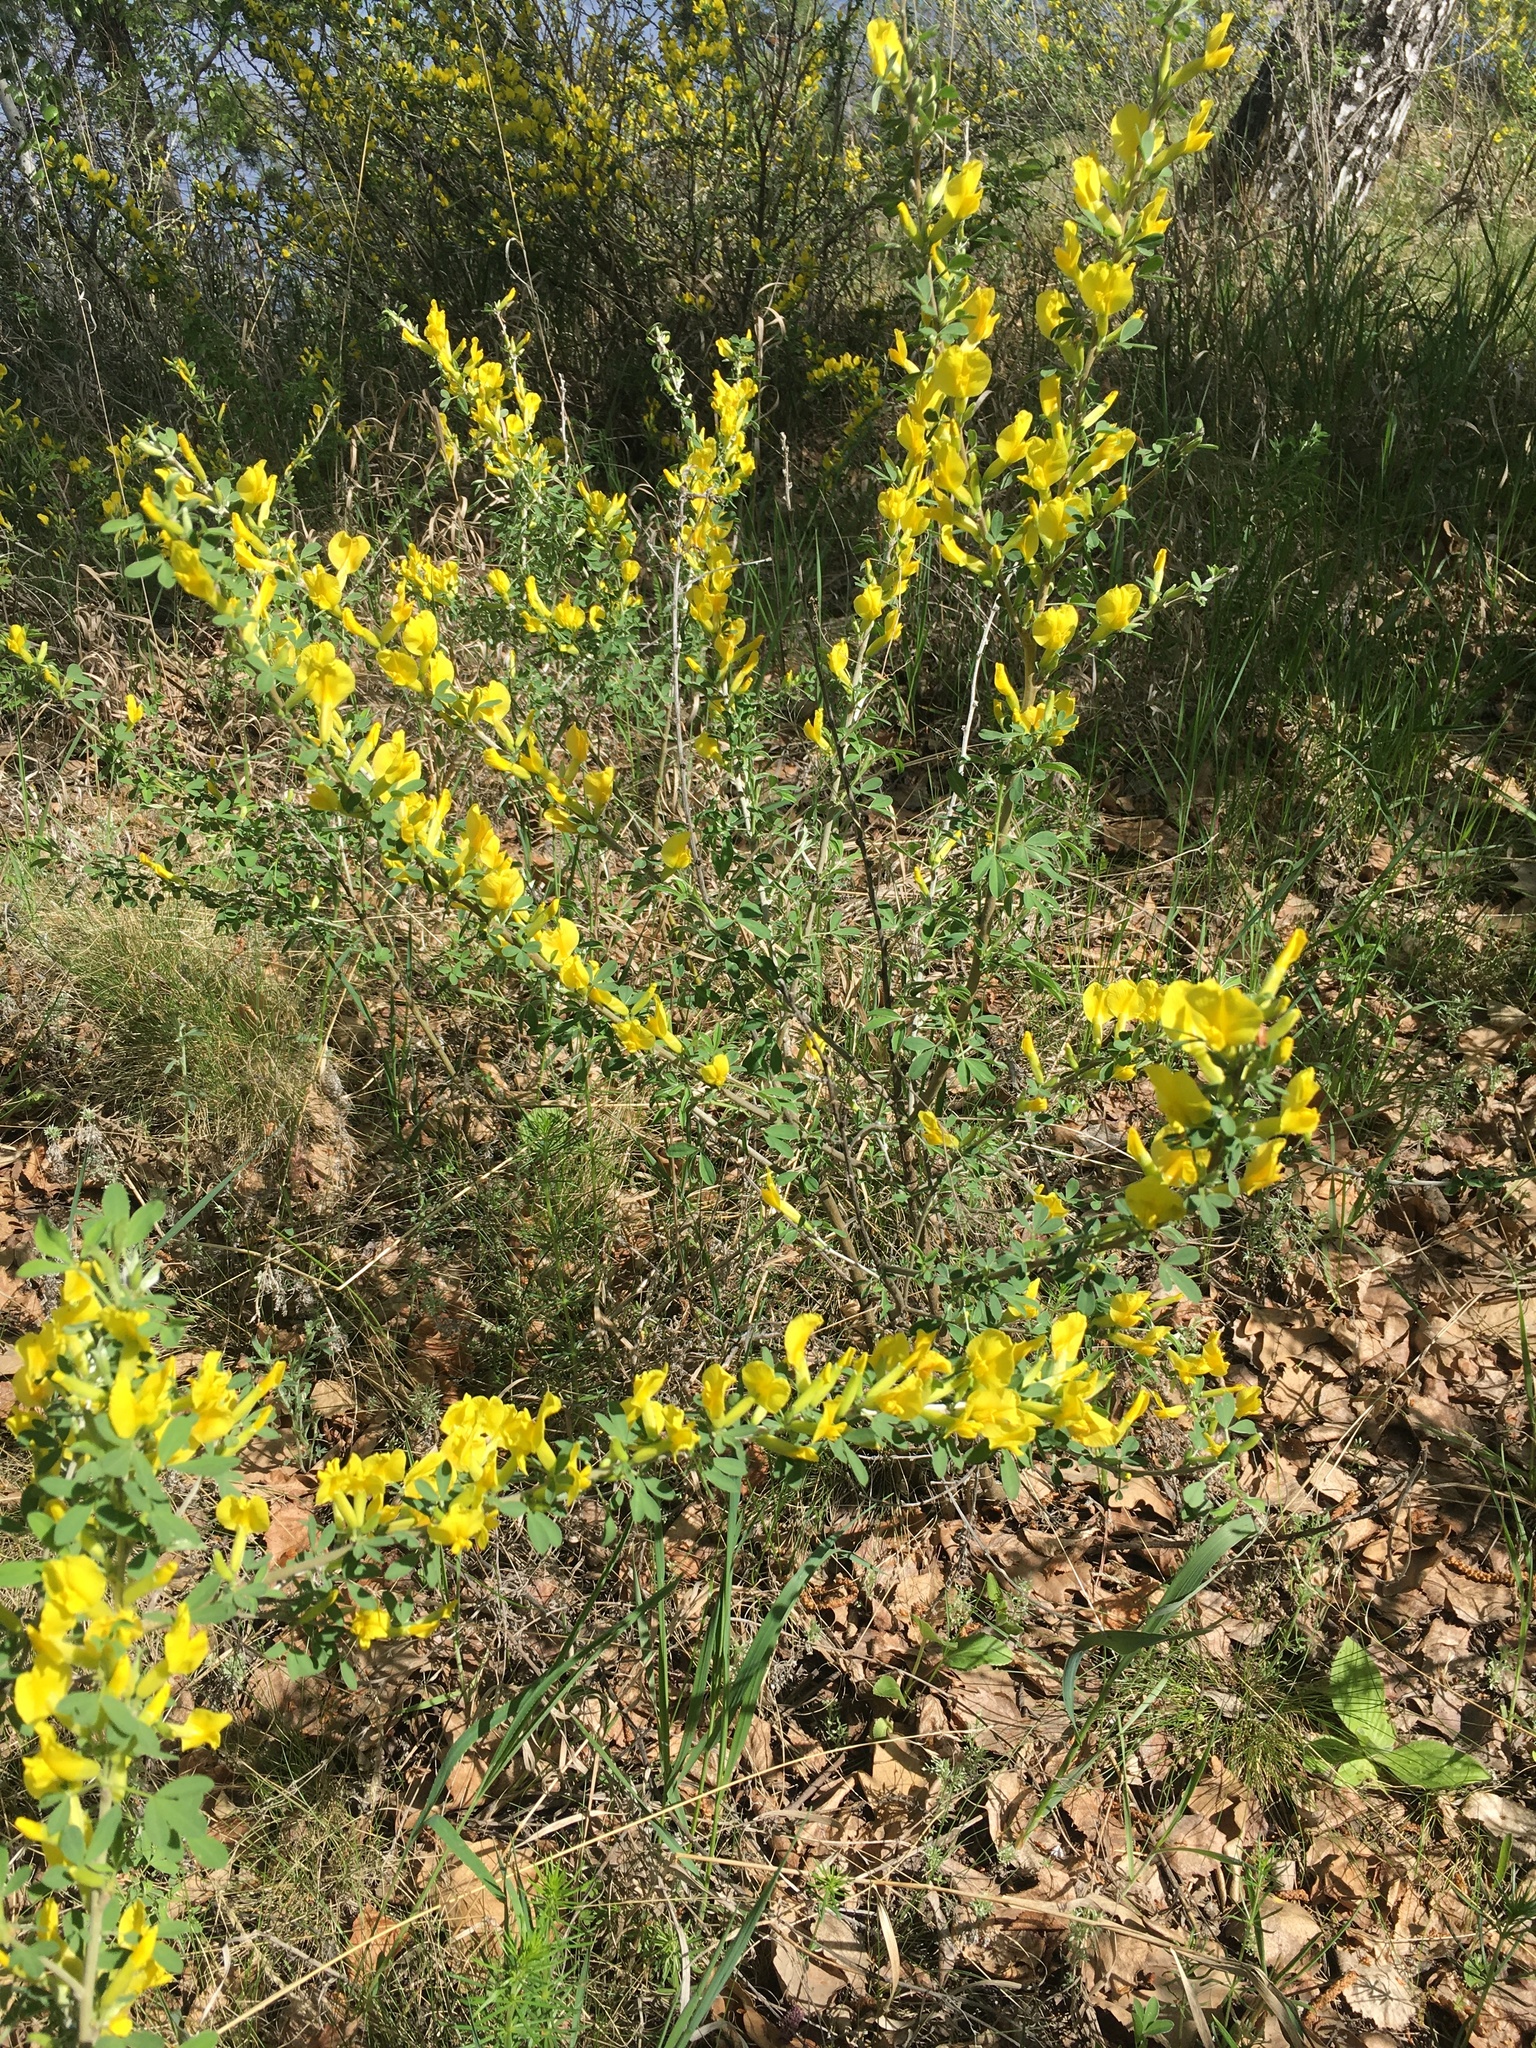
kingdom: Plantae
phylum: Tracheophyta
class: Magnoliopsida
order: Fabales
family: Fabaceae
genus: Chamaecytisus
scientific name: Chamaecytisus ruthenicus
